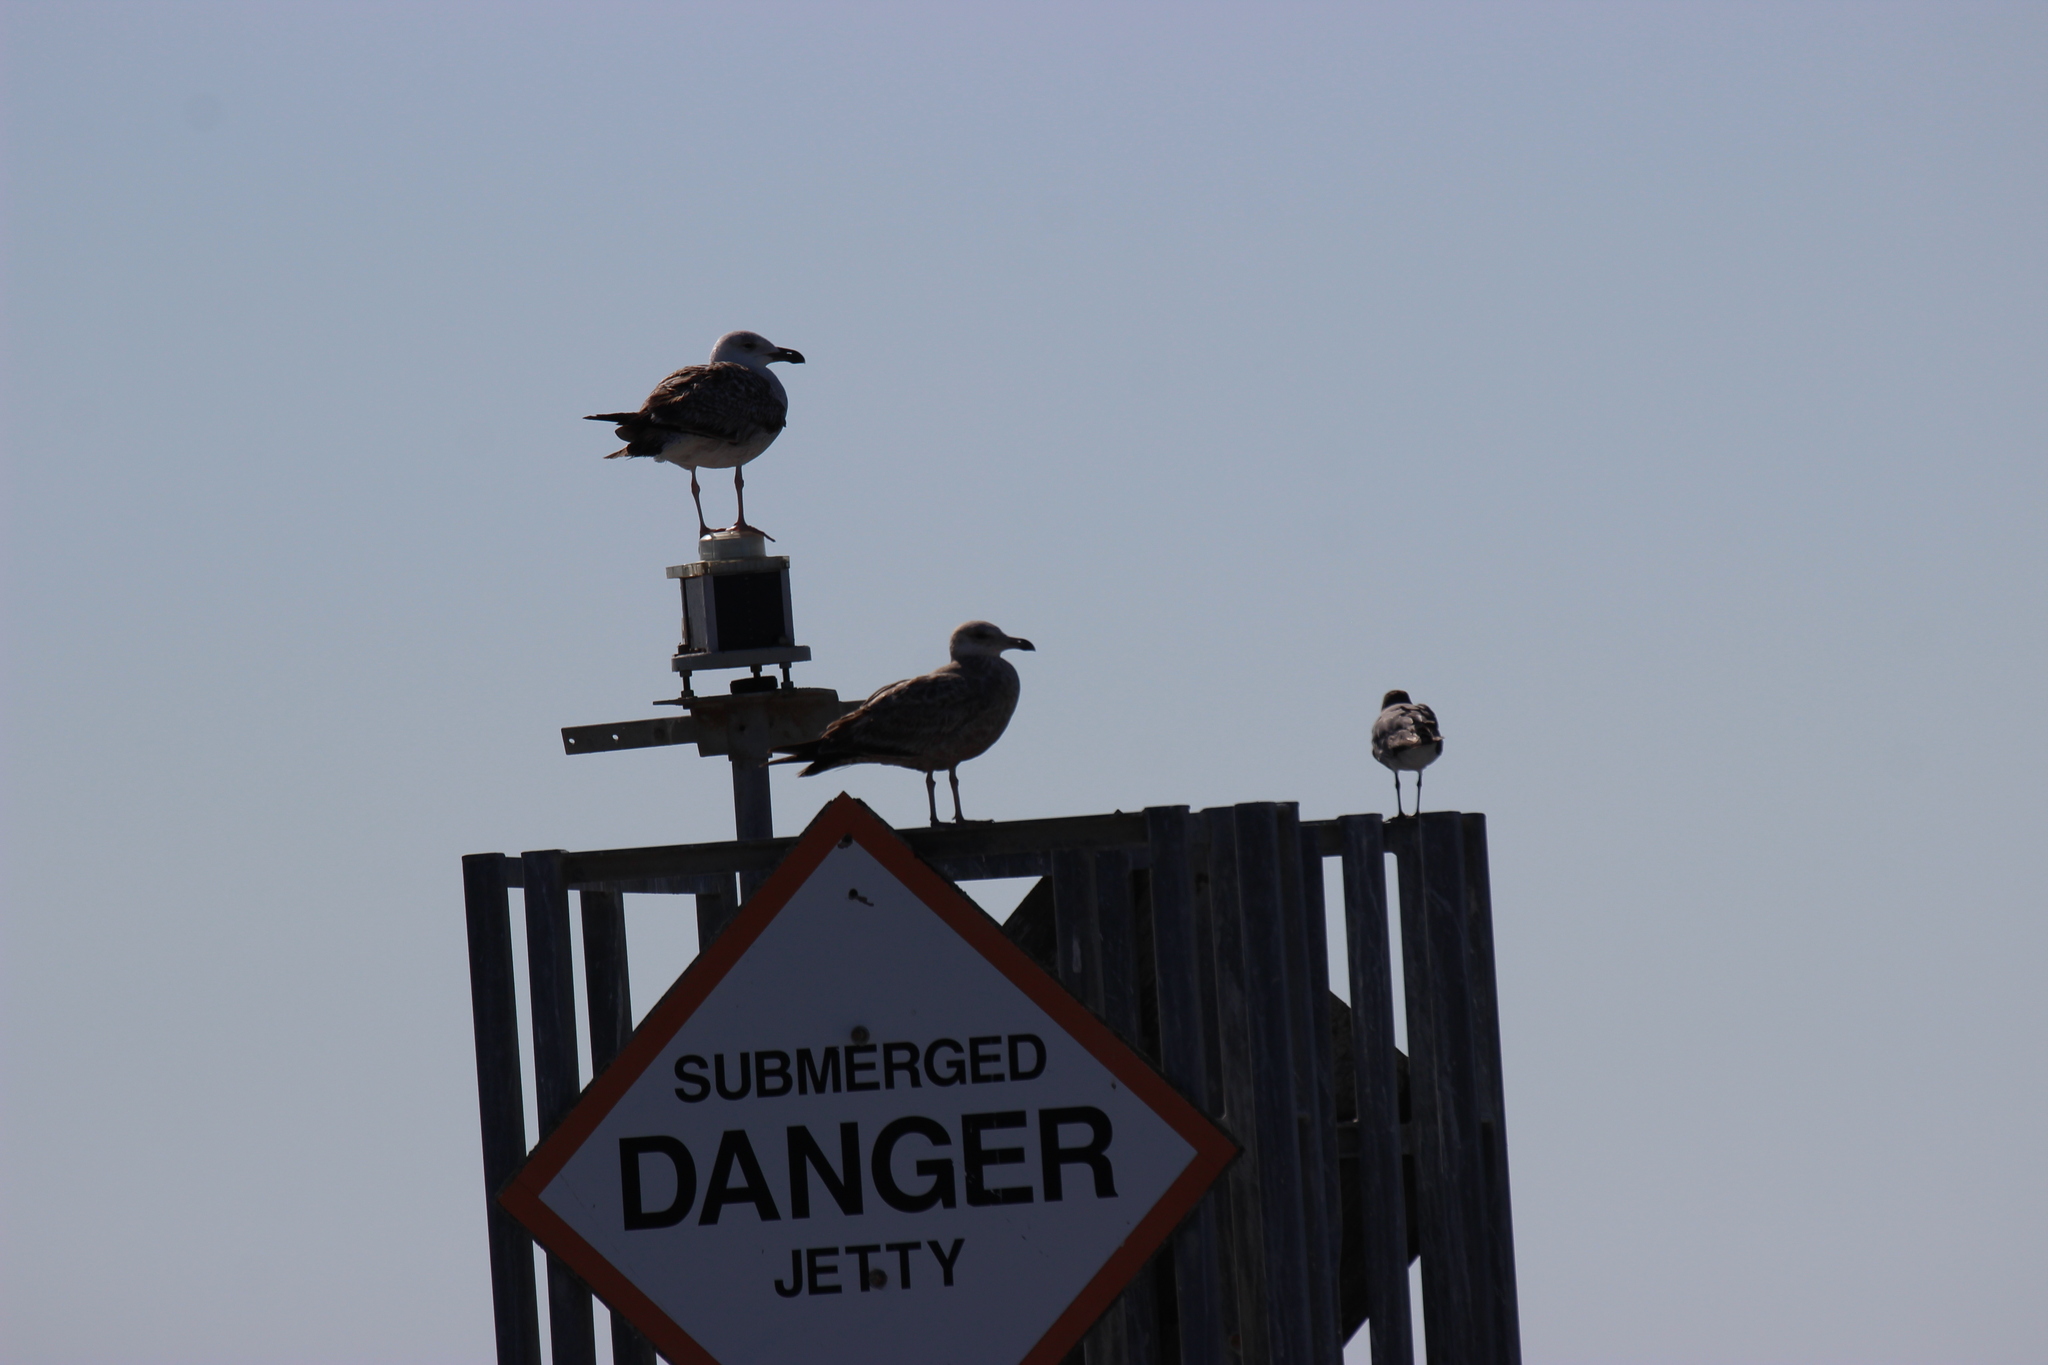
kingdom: Animalia
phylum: Chordata
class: Aves
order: Charadriiformes
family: Laridae
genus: Larus
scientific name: Larus argentatus
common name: Herring gull
